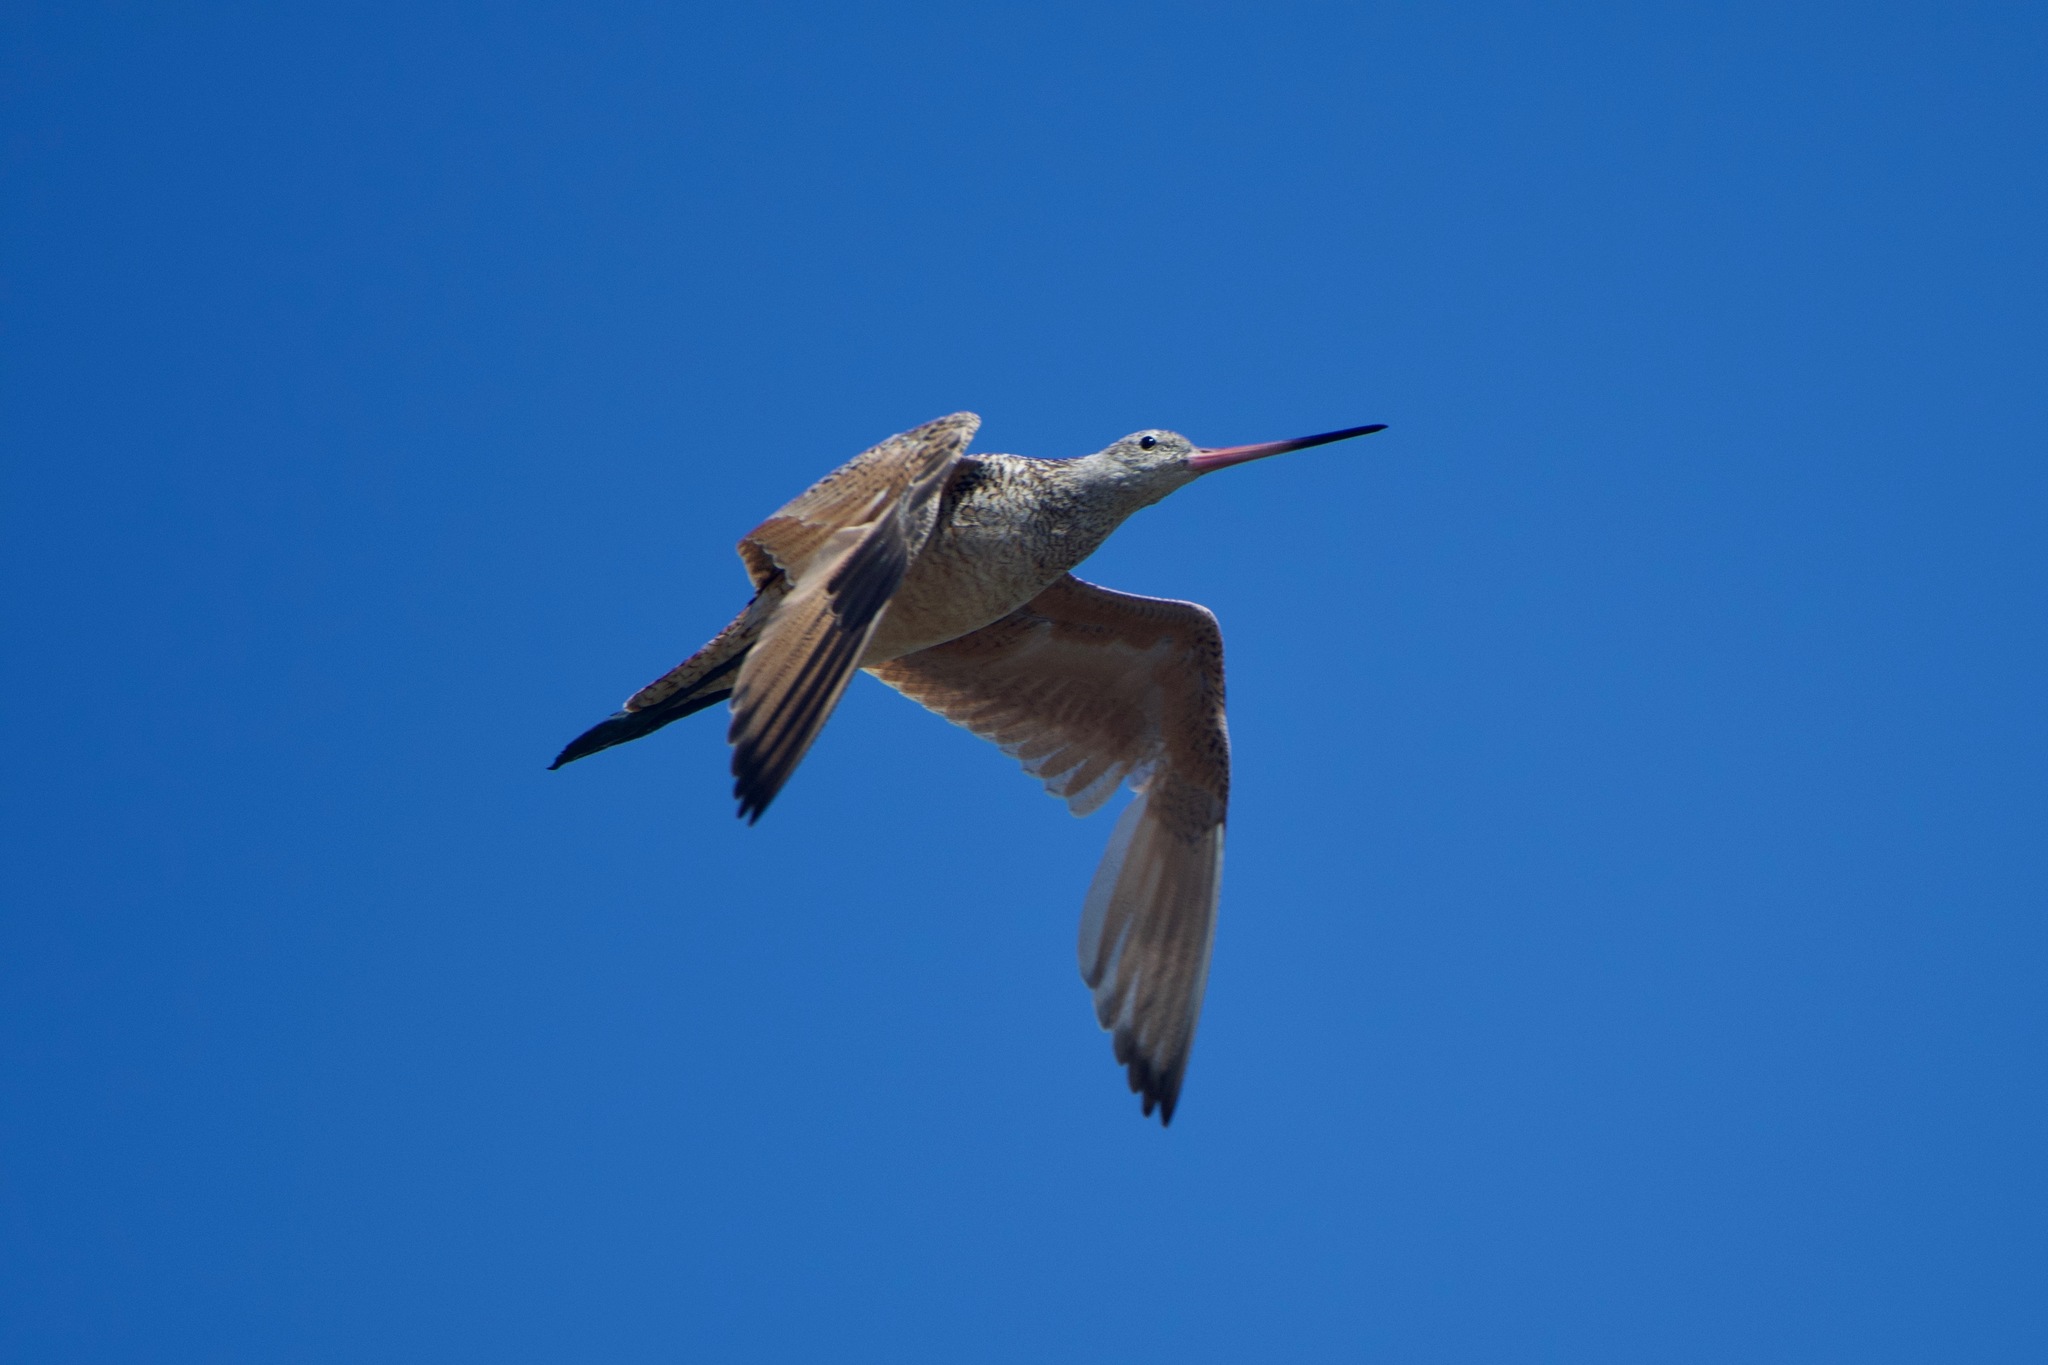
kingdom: Animalia
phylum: Chordata
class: Aves
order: Charadriiformes
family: Scolopacidae
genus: Limosa
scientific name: Limosa fedoa
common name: Marbled godwit
